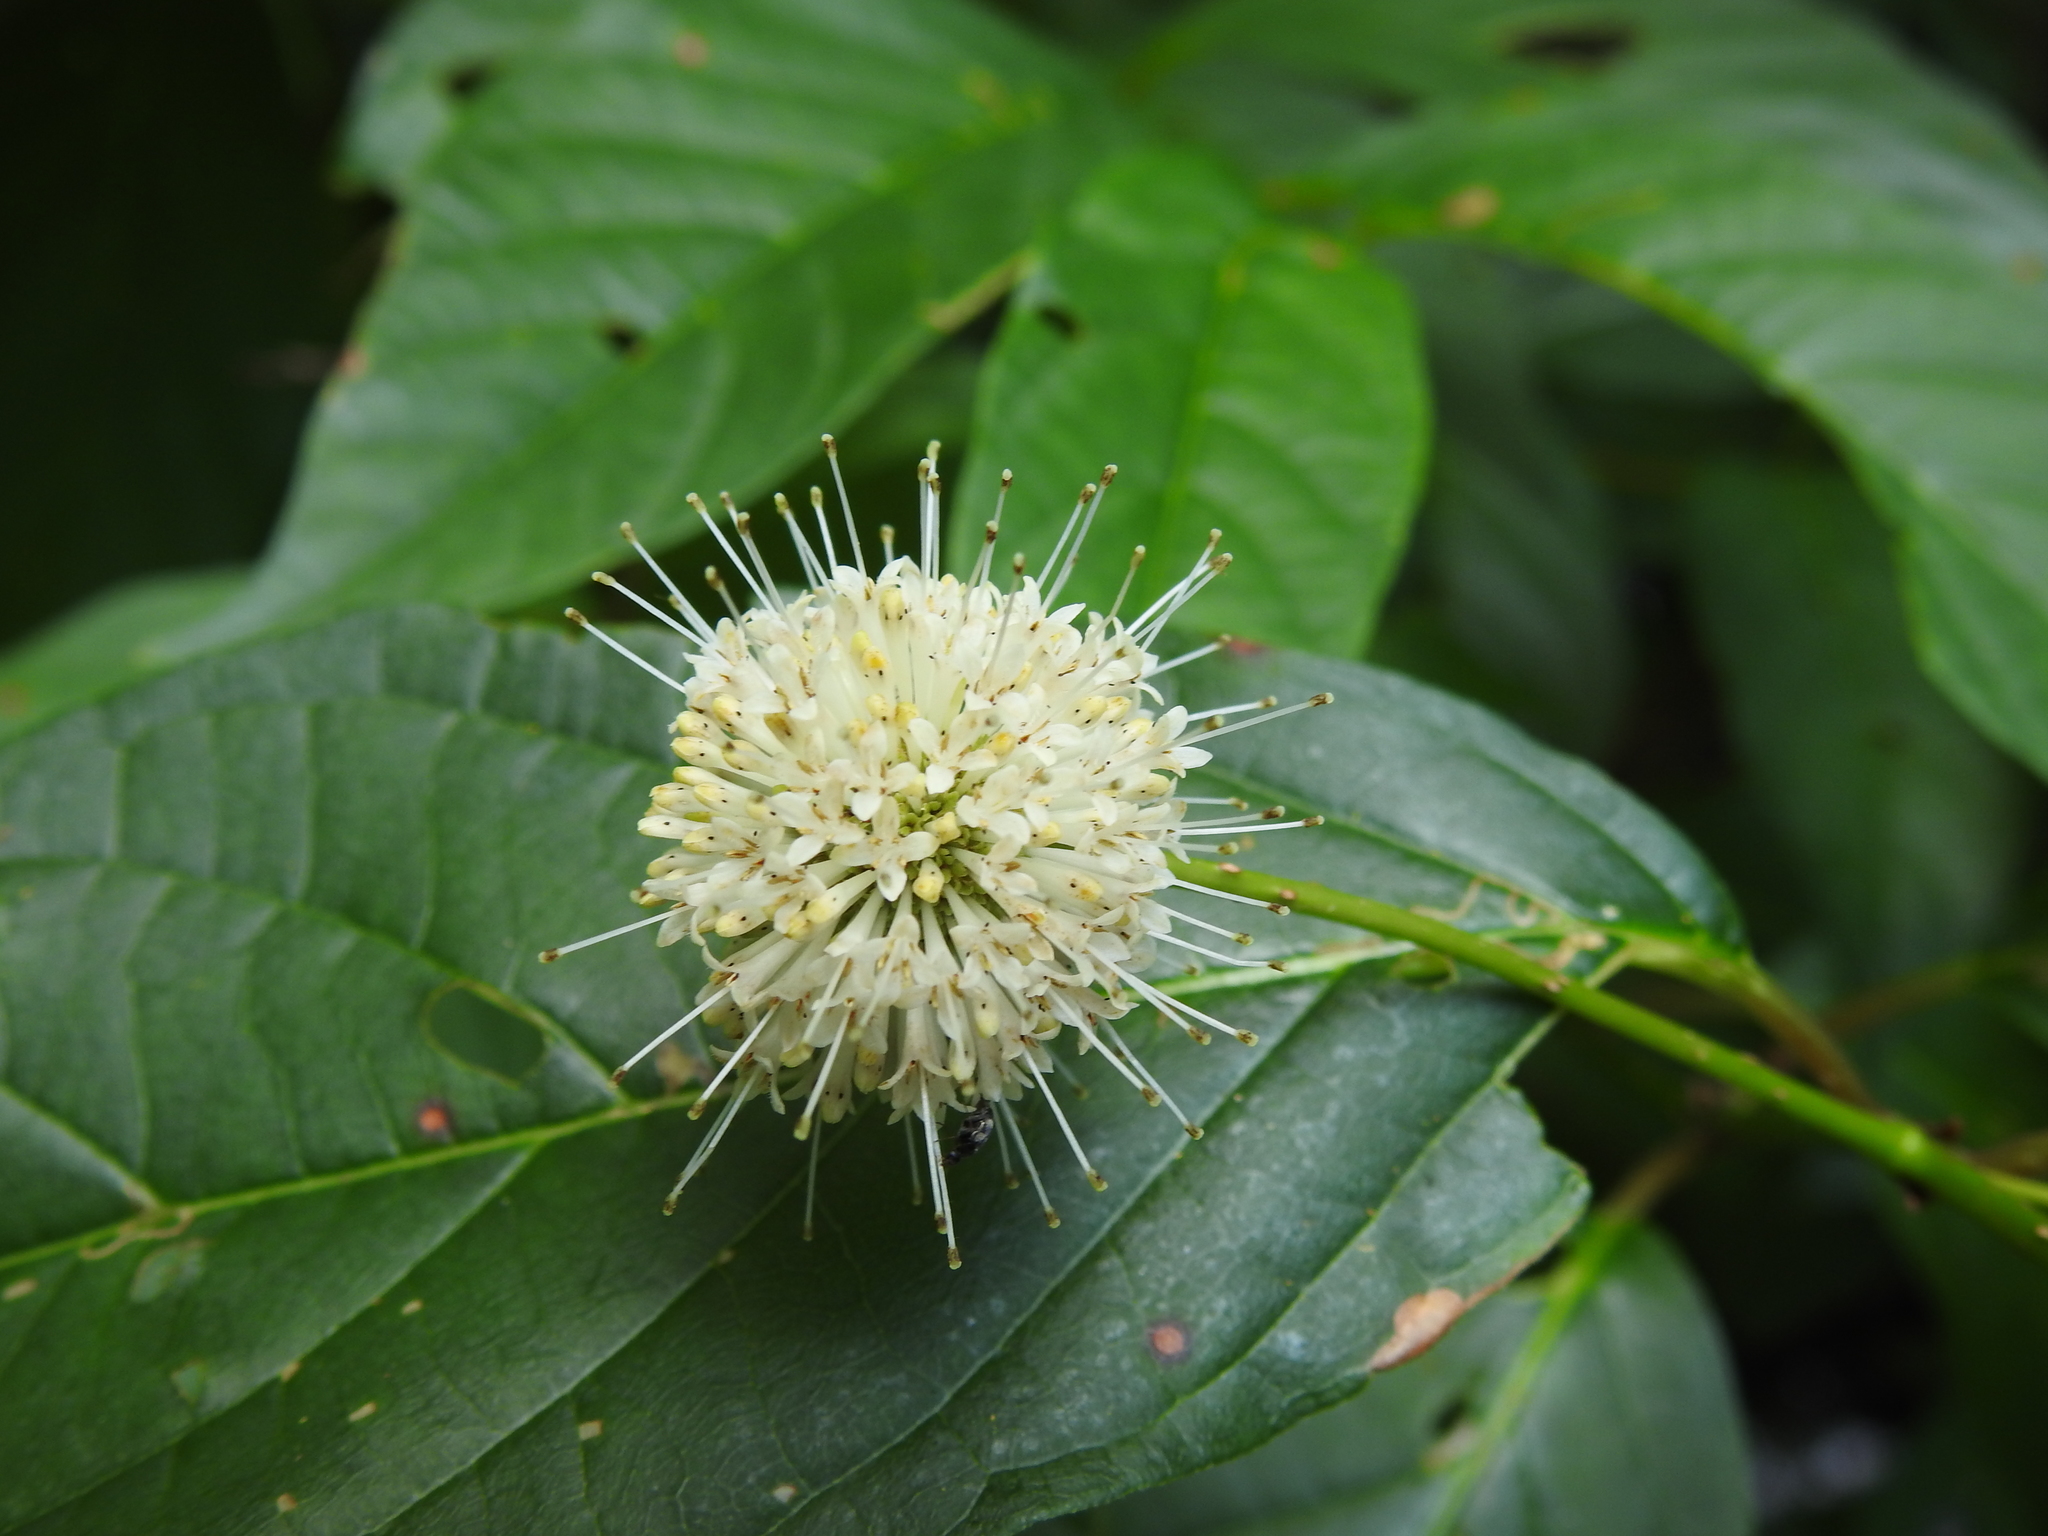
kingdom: Plantae
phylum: Tracheophyta
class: Magnoliopsida
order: Gentianales
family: Rubiaceae
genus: Cephalanthus
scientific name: Cephalanthus occidentalis
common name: Button-willow
